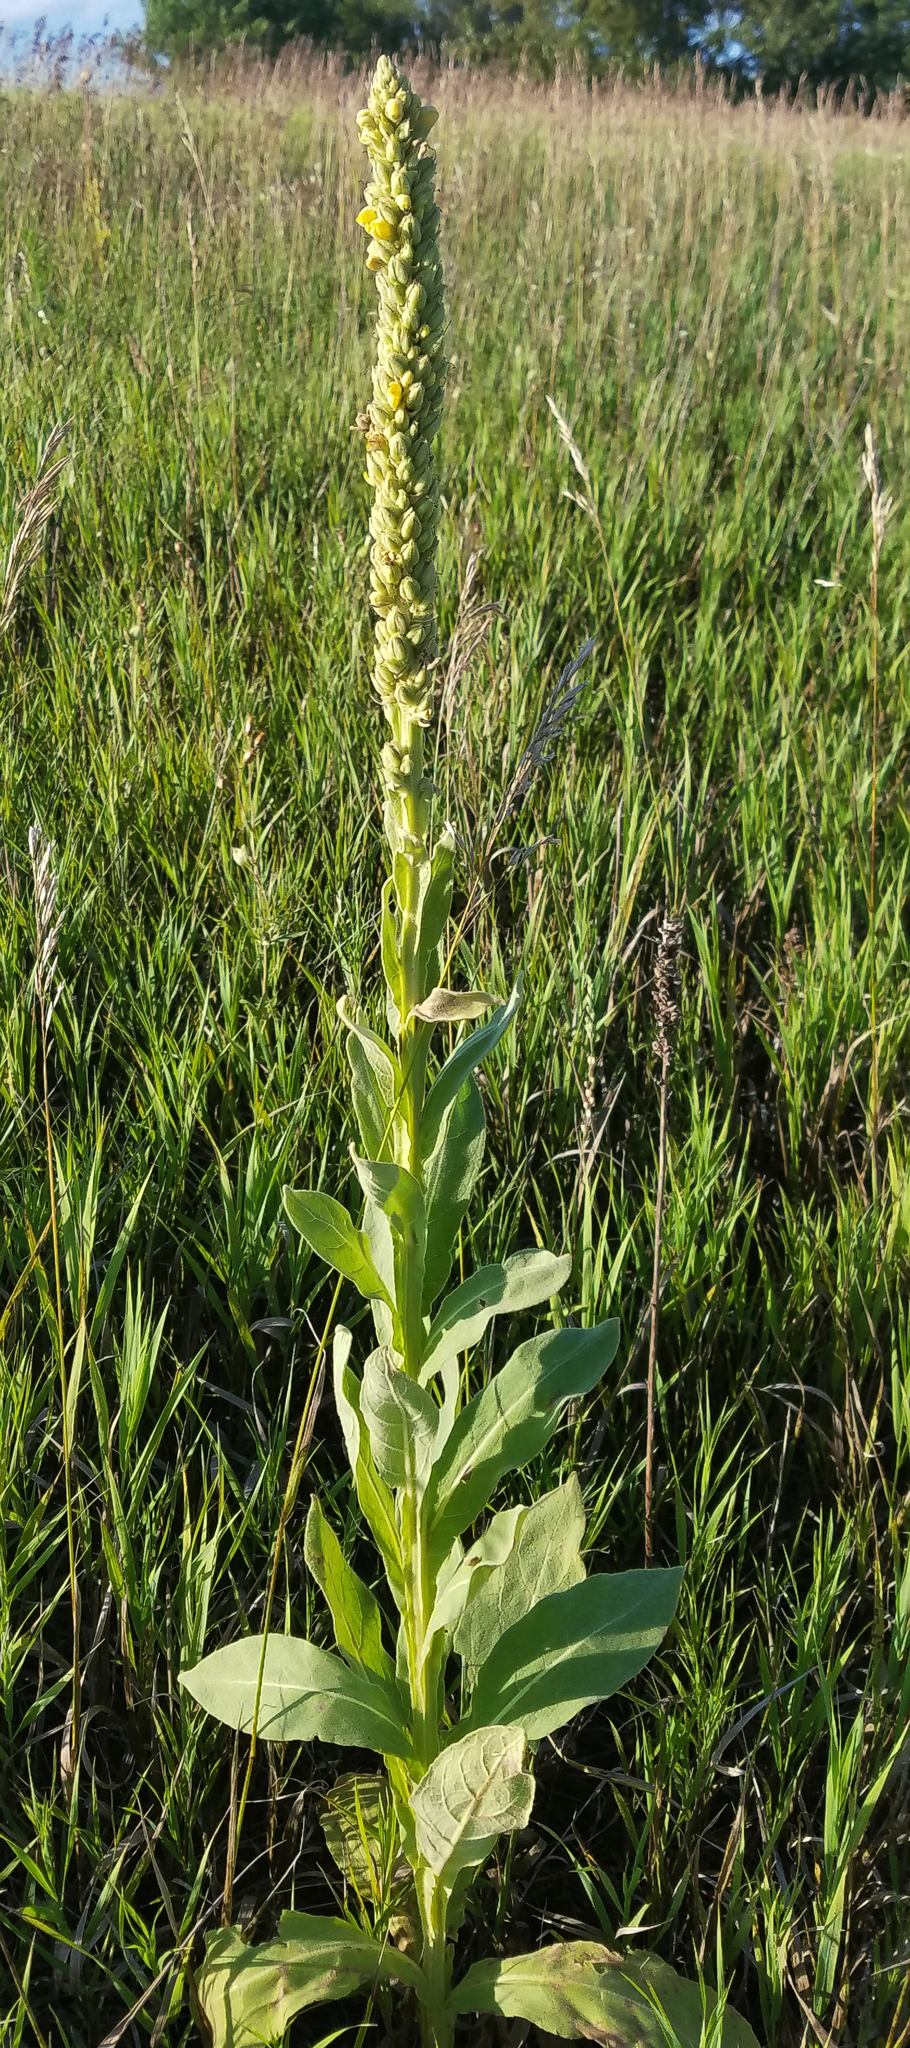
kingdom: Plantae
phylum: Tracheophyta
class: Magnoliopsida
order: Lamiales
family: Scrophulariaceae
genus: Verbascum
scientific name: Verbascum thapsus
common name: Common mullein
